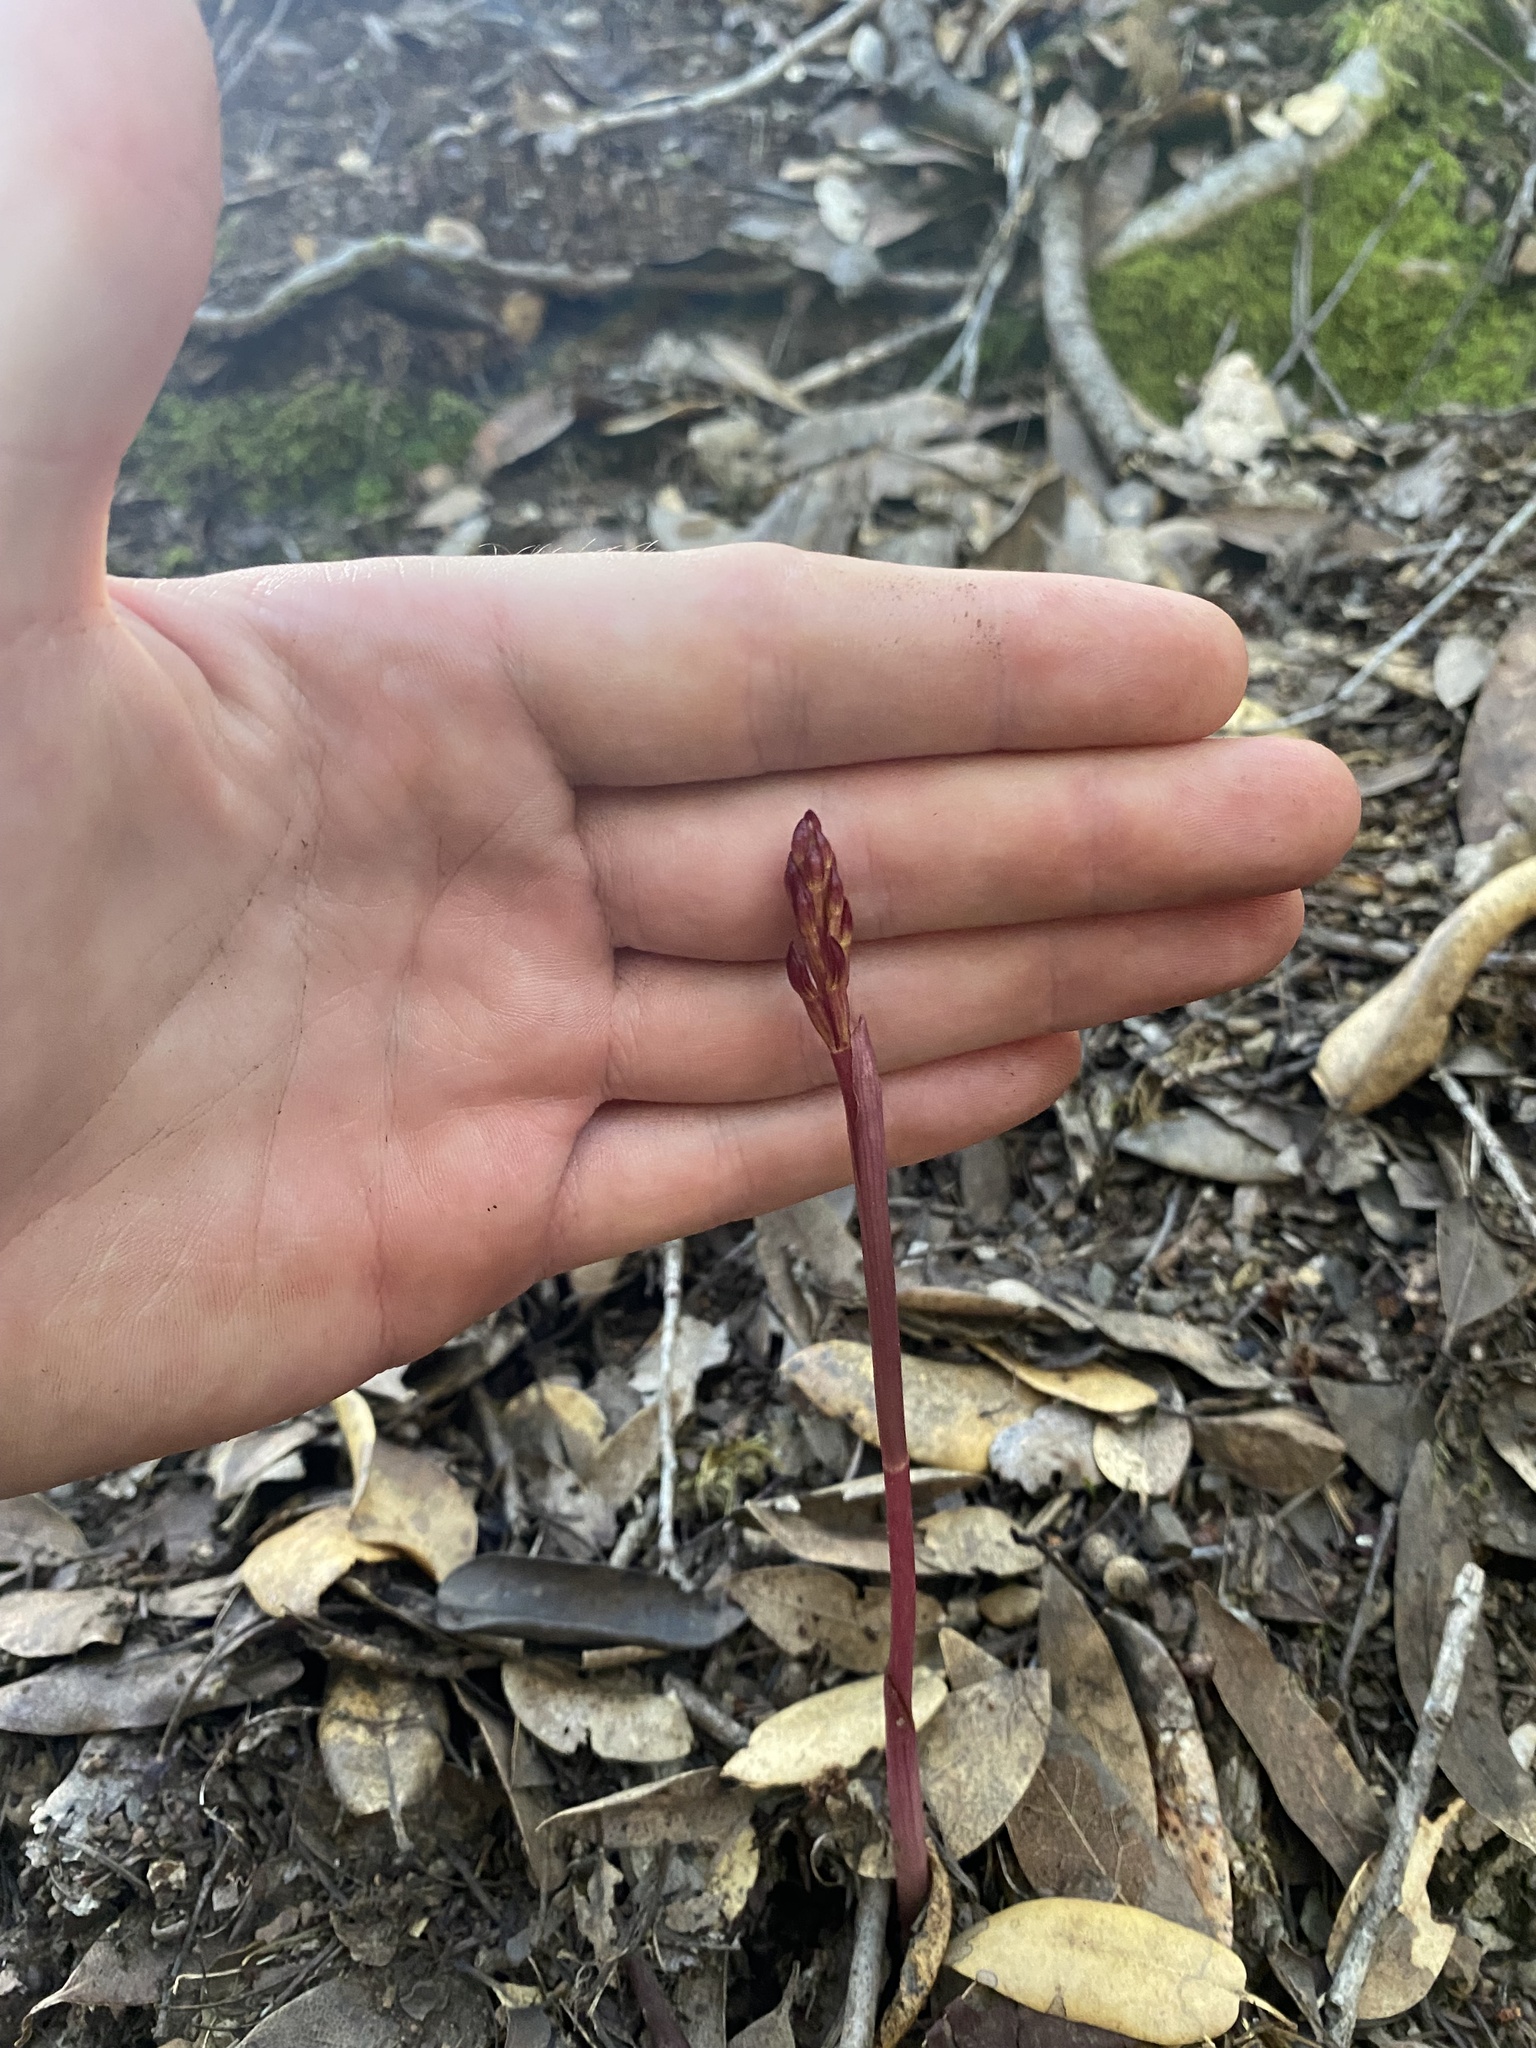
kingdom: Plantae
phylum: Tracheophyta
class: Liliopsida
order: Asparagales
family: Orchidaceae
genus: Corallorhiza
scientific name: Corallorhiza maculata
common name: Spotted coralroot
